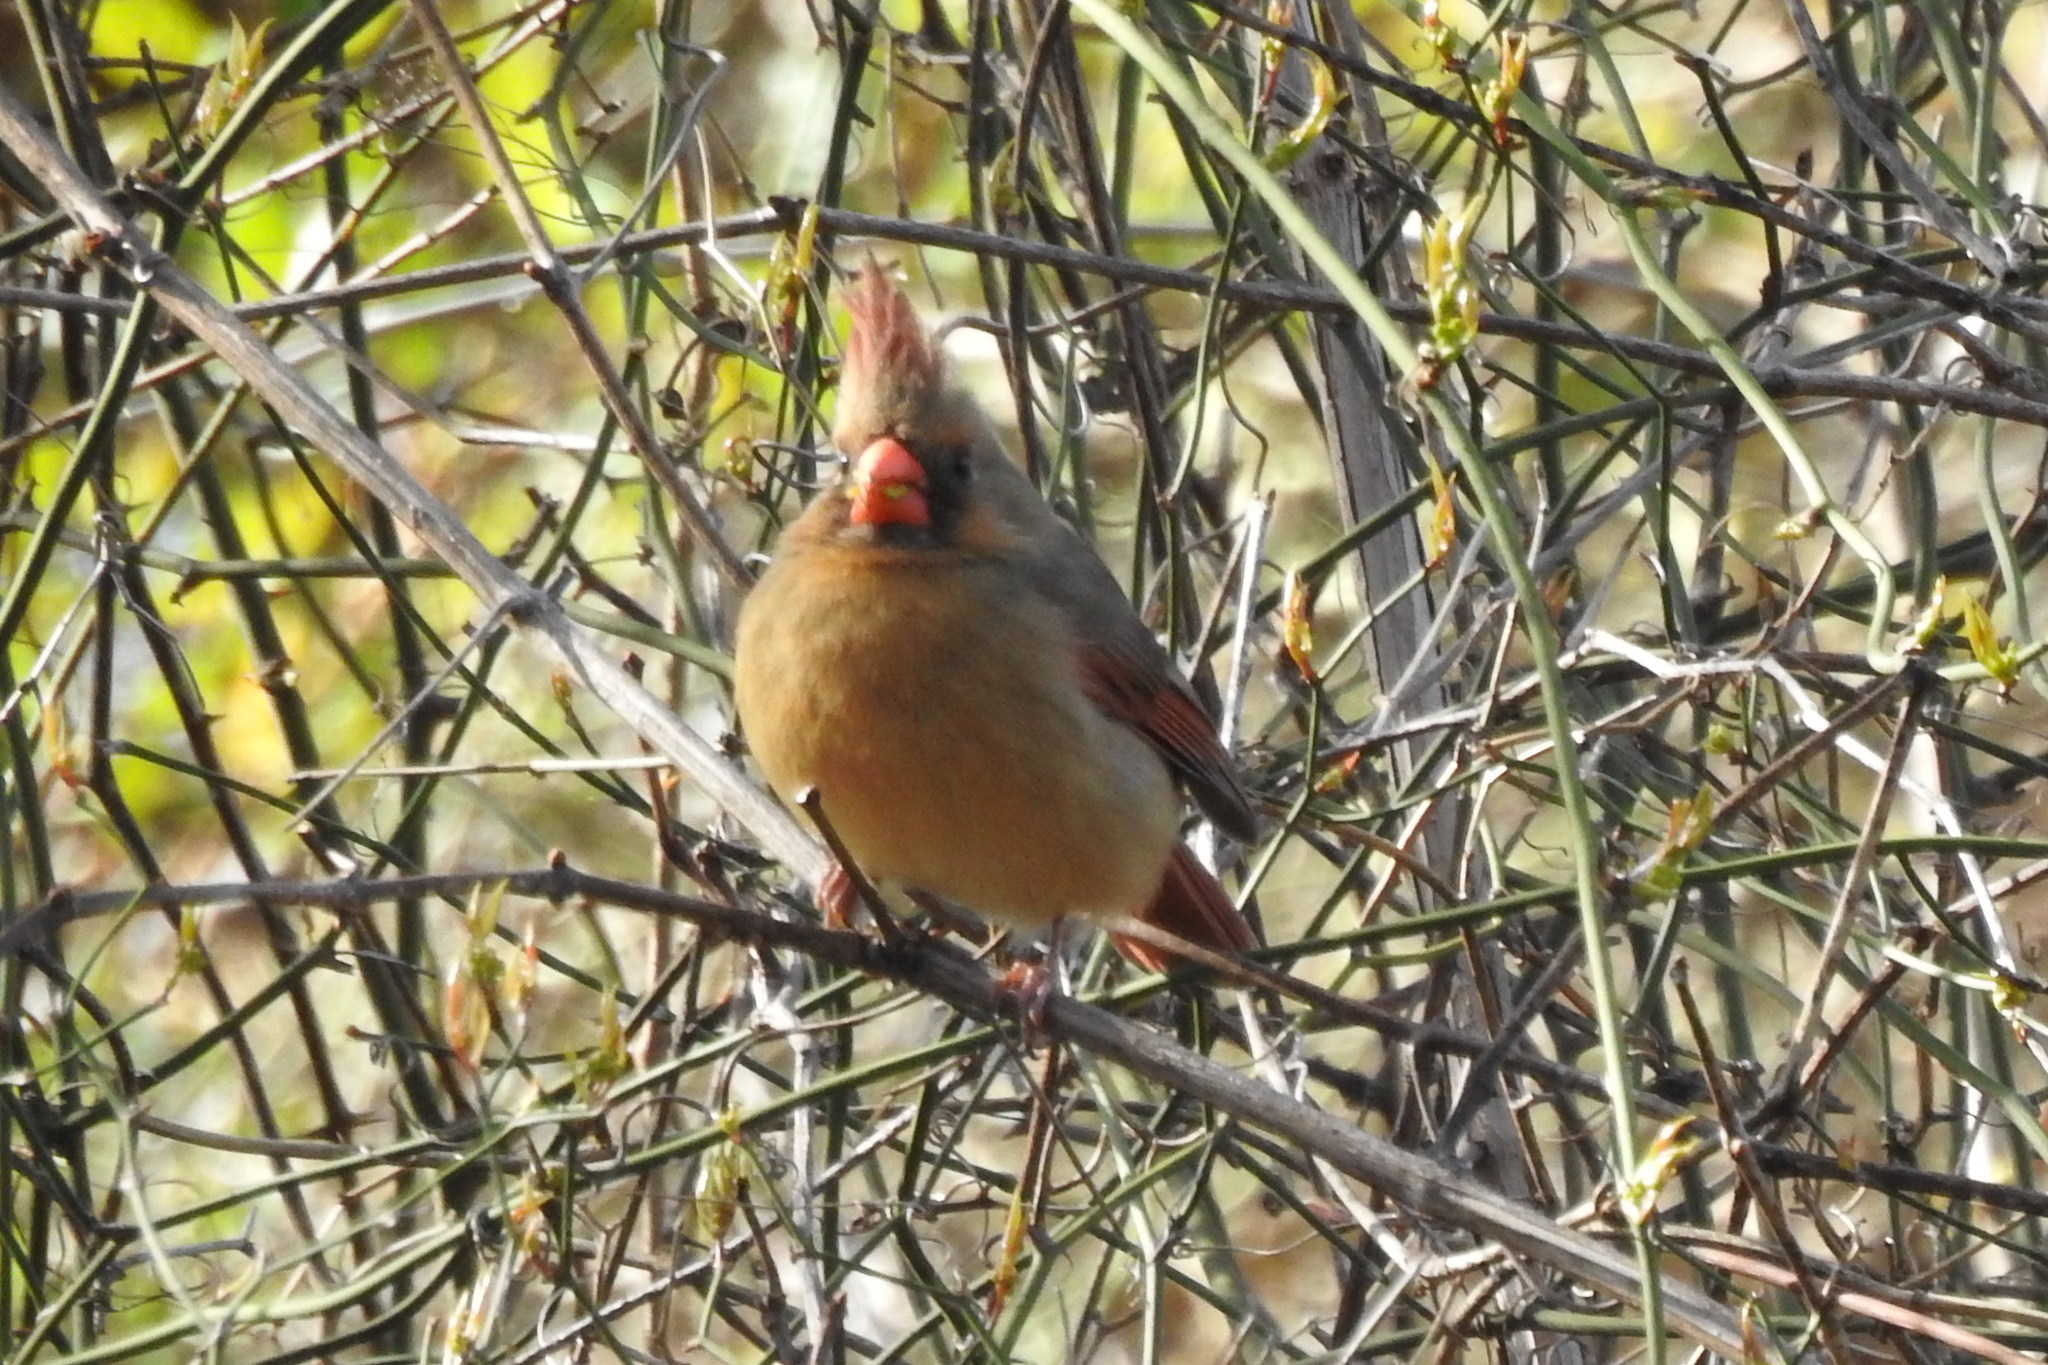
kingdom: Animalia
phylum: Chordata
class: Aves
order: Passeriformes
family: Cardinalidae
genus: Cardinalis
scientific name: Cardinalis cardinalis
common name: Northern cardinal
